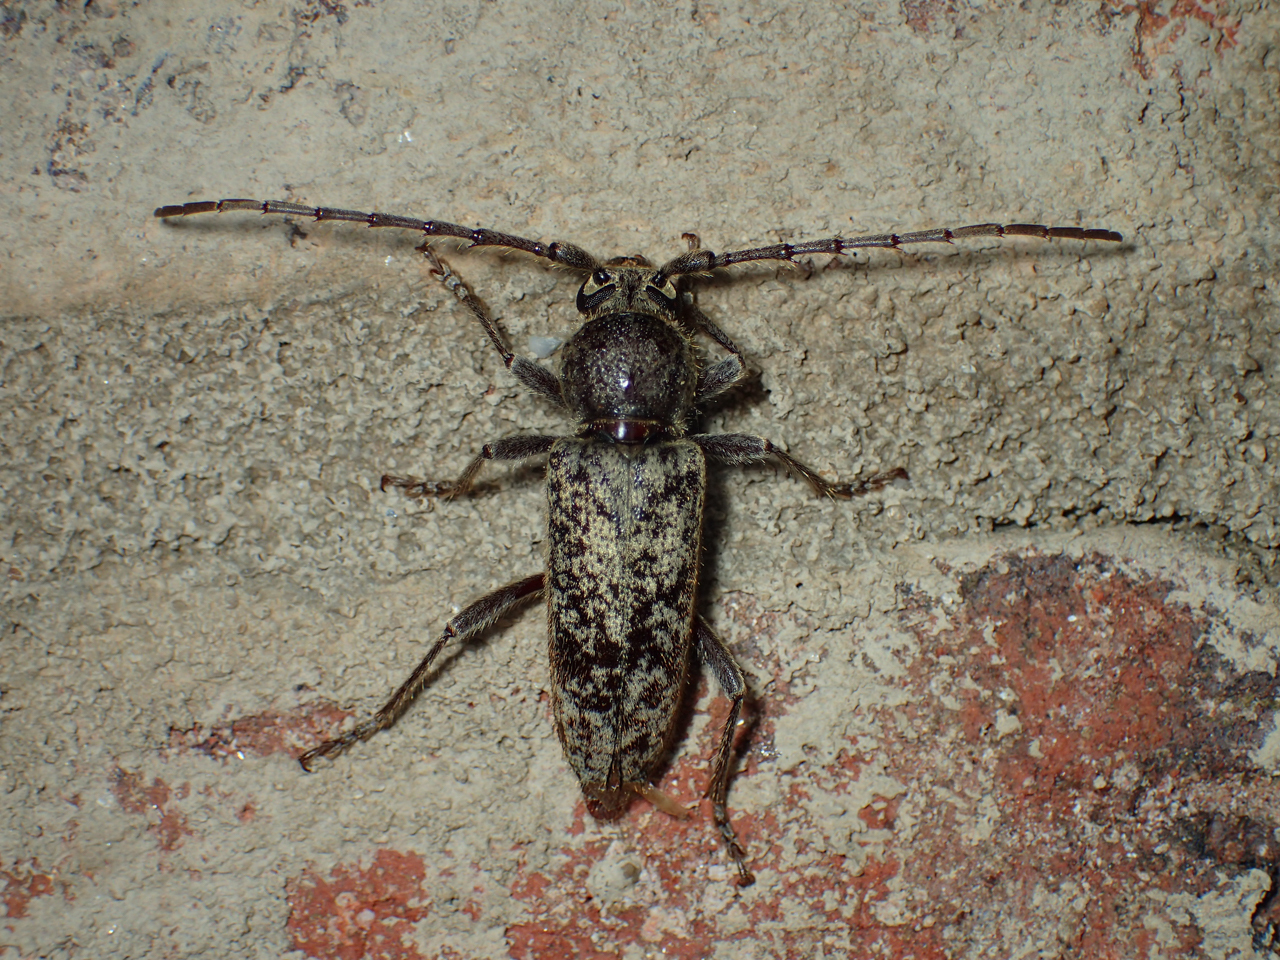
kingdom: Animalia
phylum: Arthropoda
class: Insecta
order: Coleoptera
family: Cerambycidae
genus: Enaphalodes
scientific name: Enaphalodes atomarius
